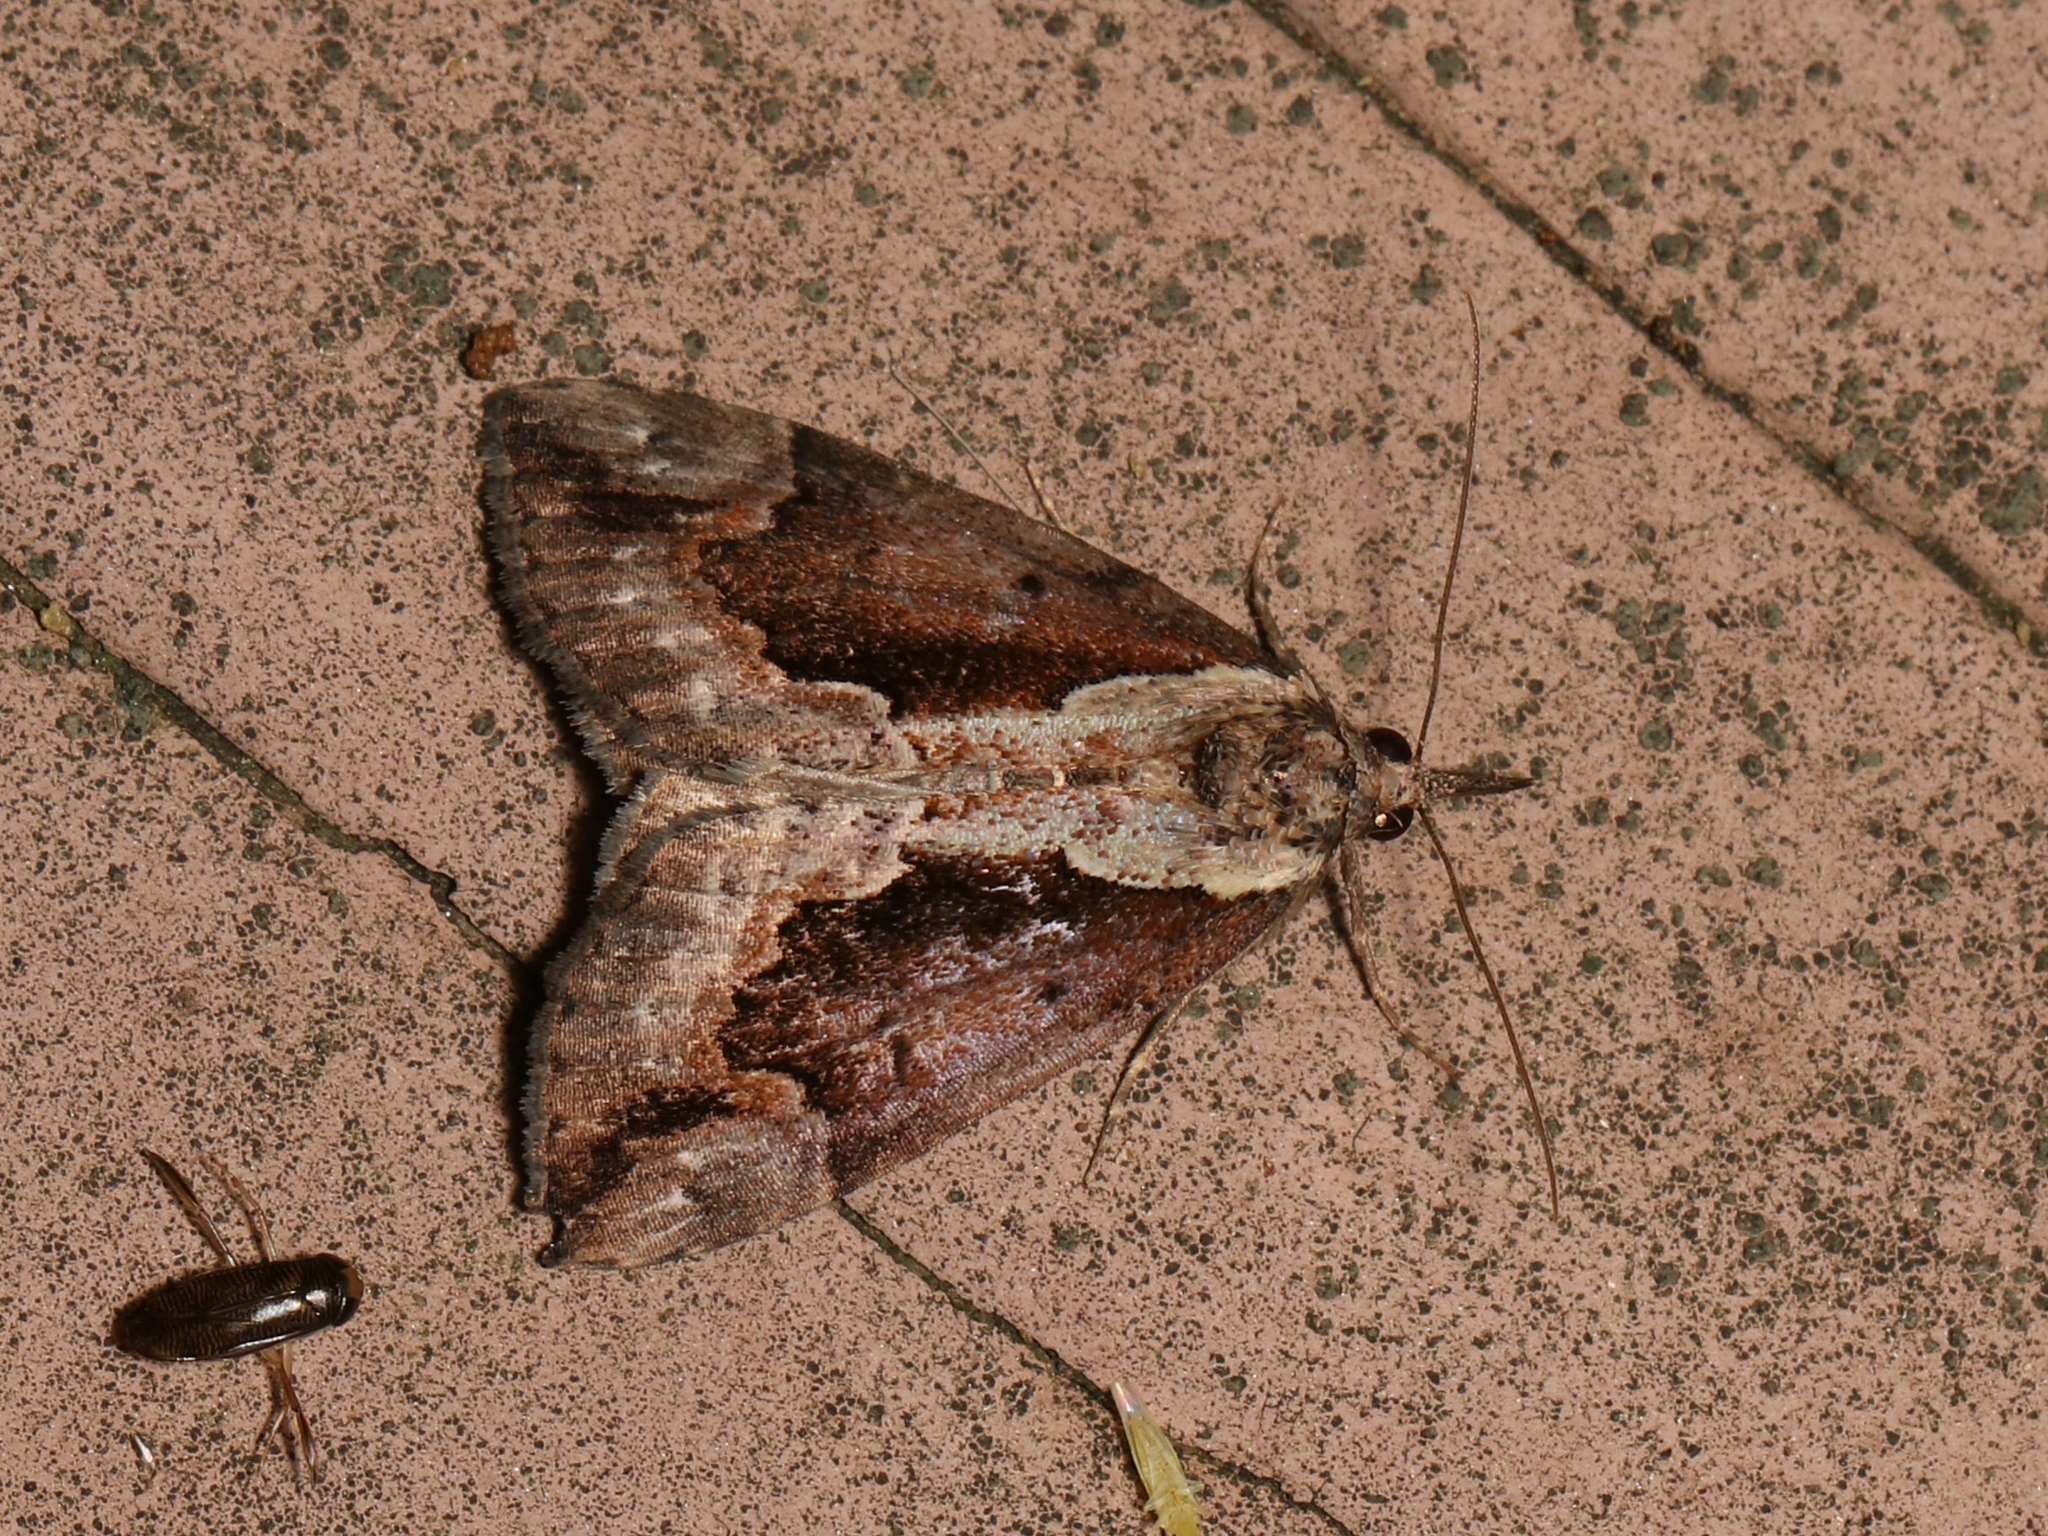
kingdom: Animalia
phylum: Arthropoda
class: Insecta
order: Lepidoptera
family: Erebidae
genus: Hypena
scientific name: Hypena baltimoralis
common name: Baltimore snout
